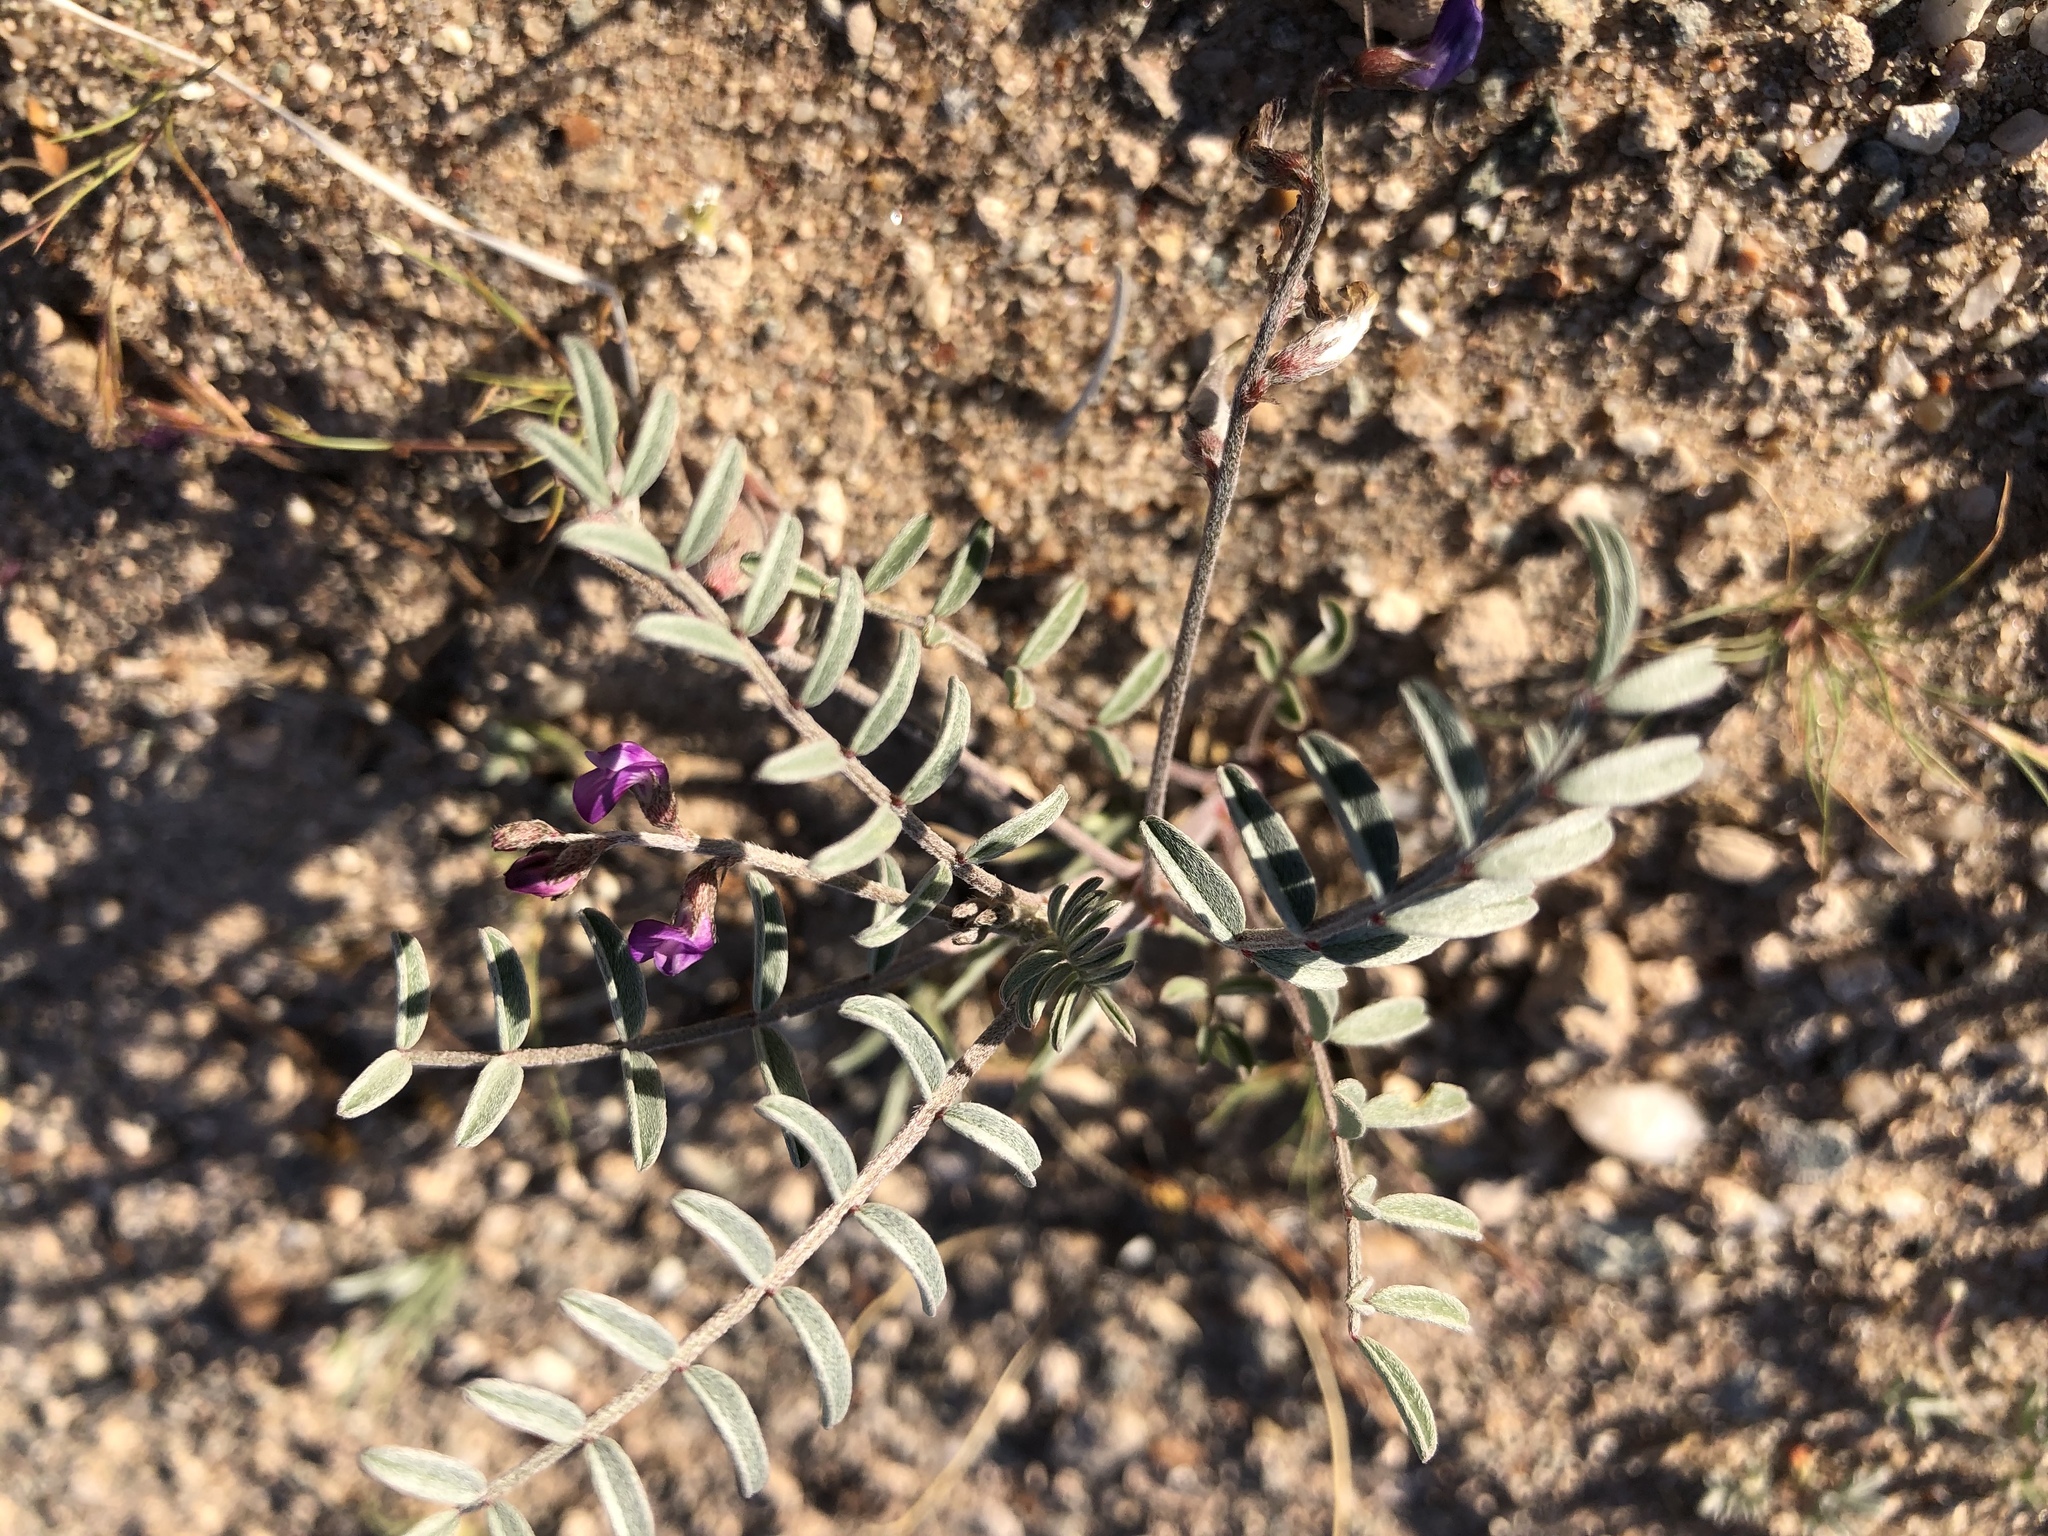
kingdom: Plantae
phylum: Tracheophyta
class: Magnoliopsida
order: Fabales
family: Fabaceae
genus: Astragalus
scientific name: Astragalus nutans
